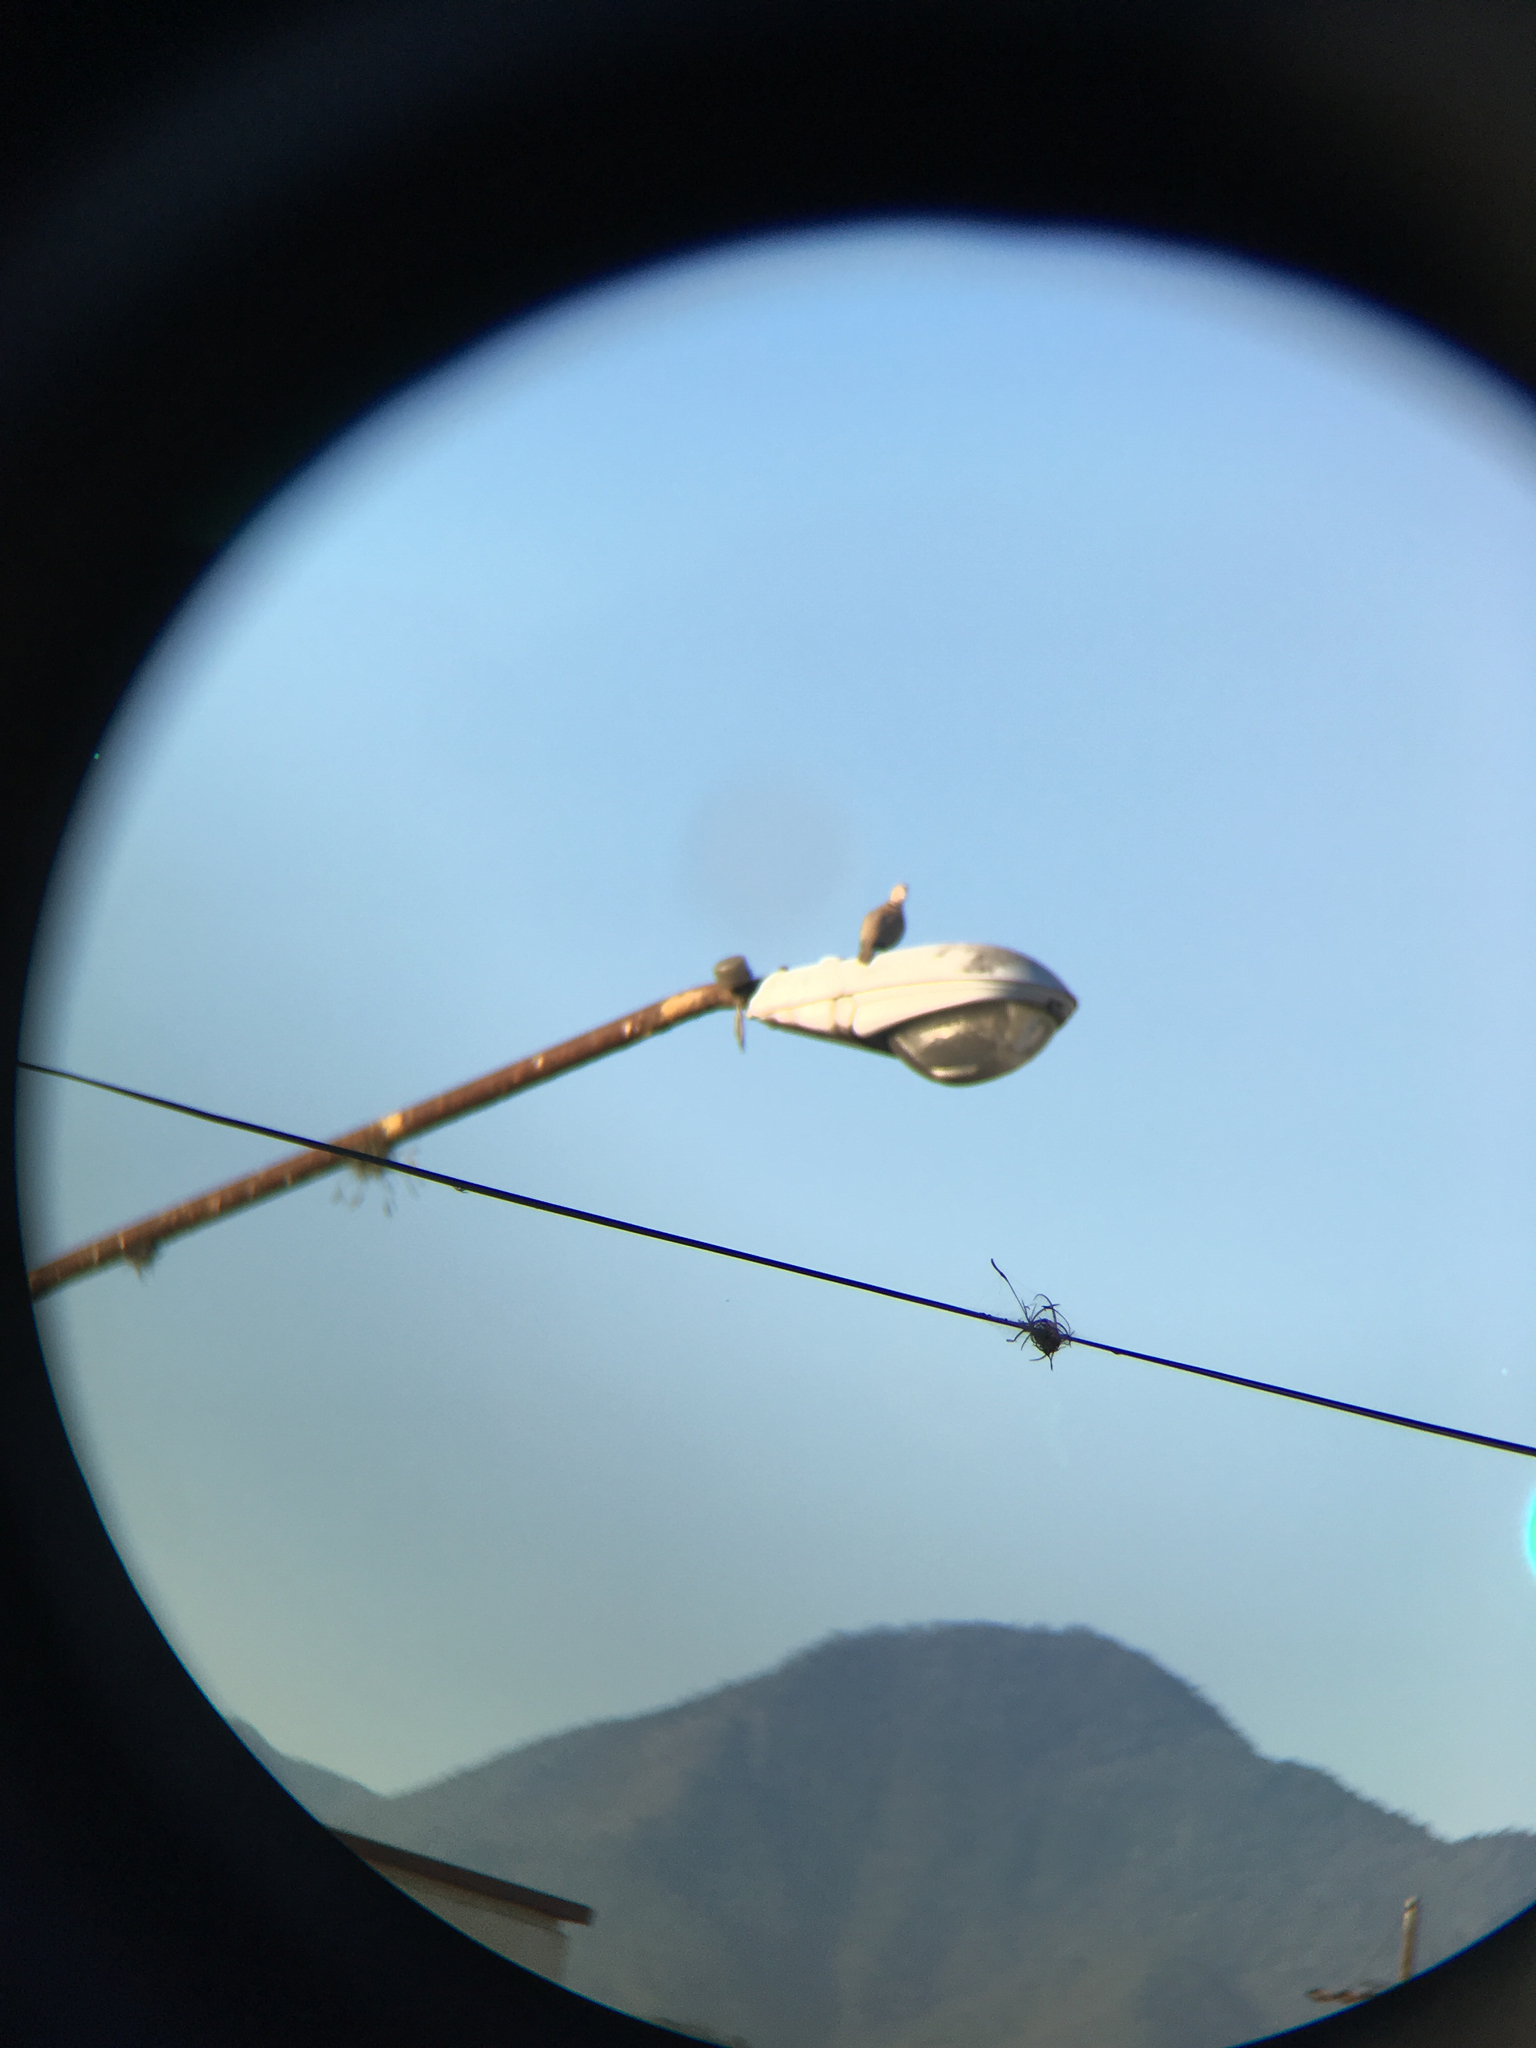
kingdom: Animalia
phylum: Chordata
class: Aves
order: Columbiformes
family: Columbidae
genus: Streptopelia
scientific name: Streptopelia decaocto
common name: Eurasian collared dove
